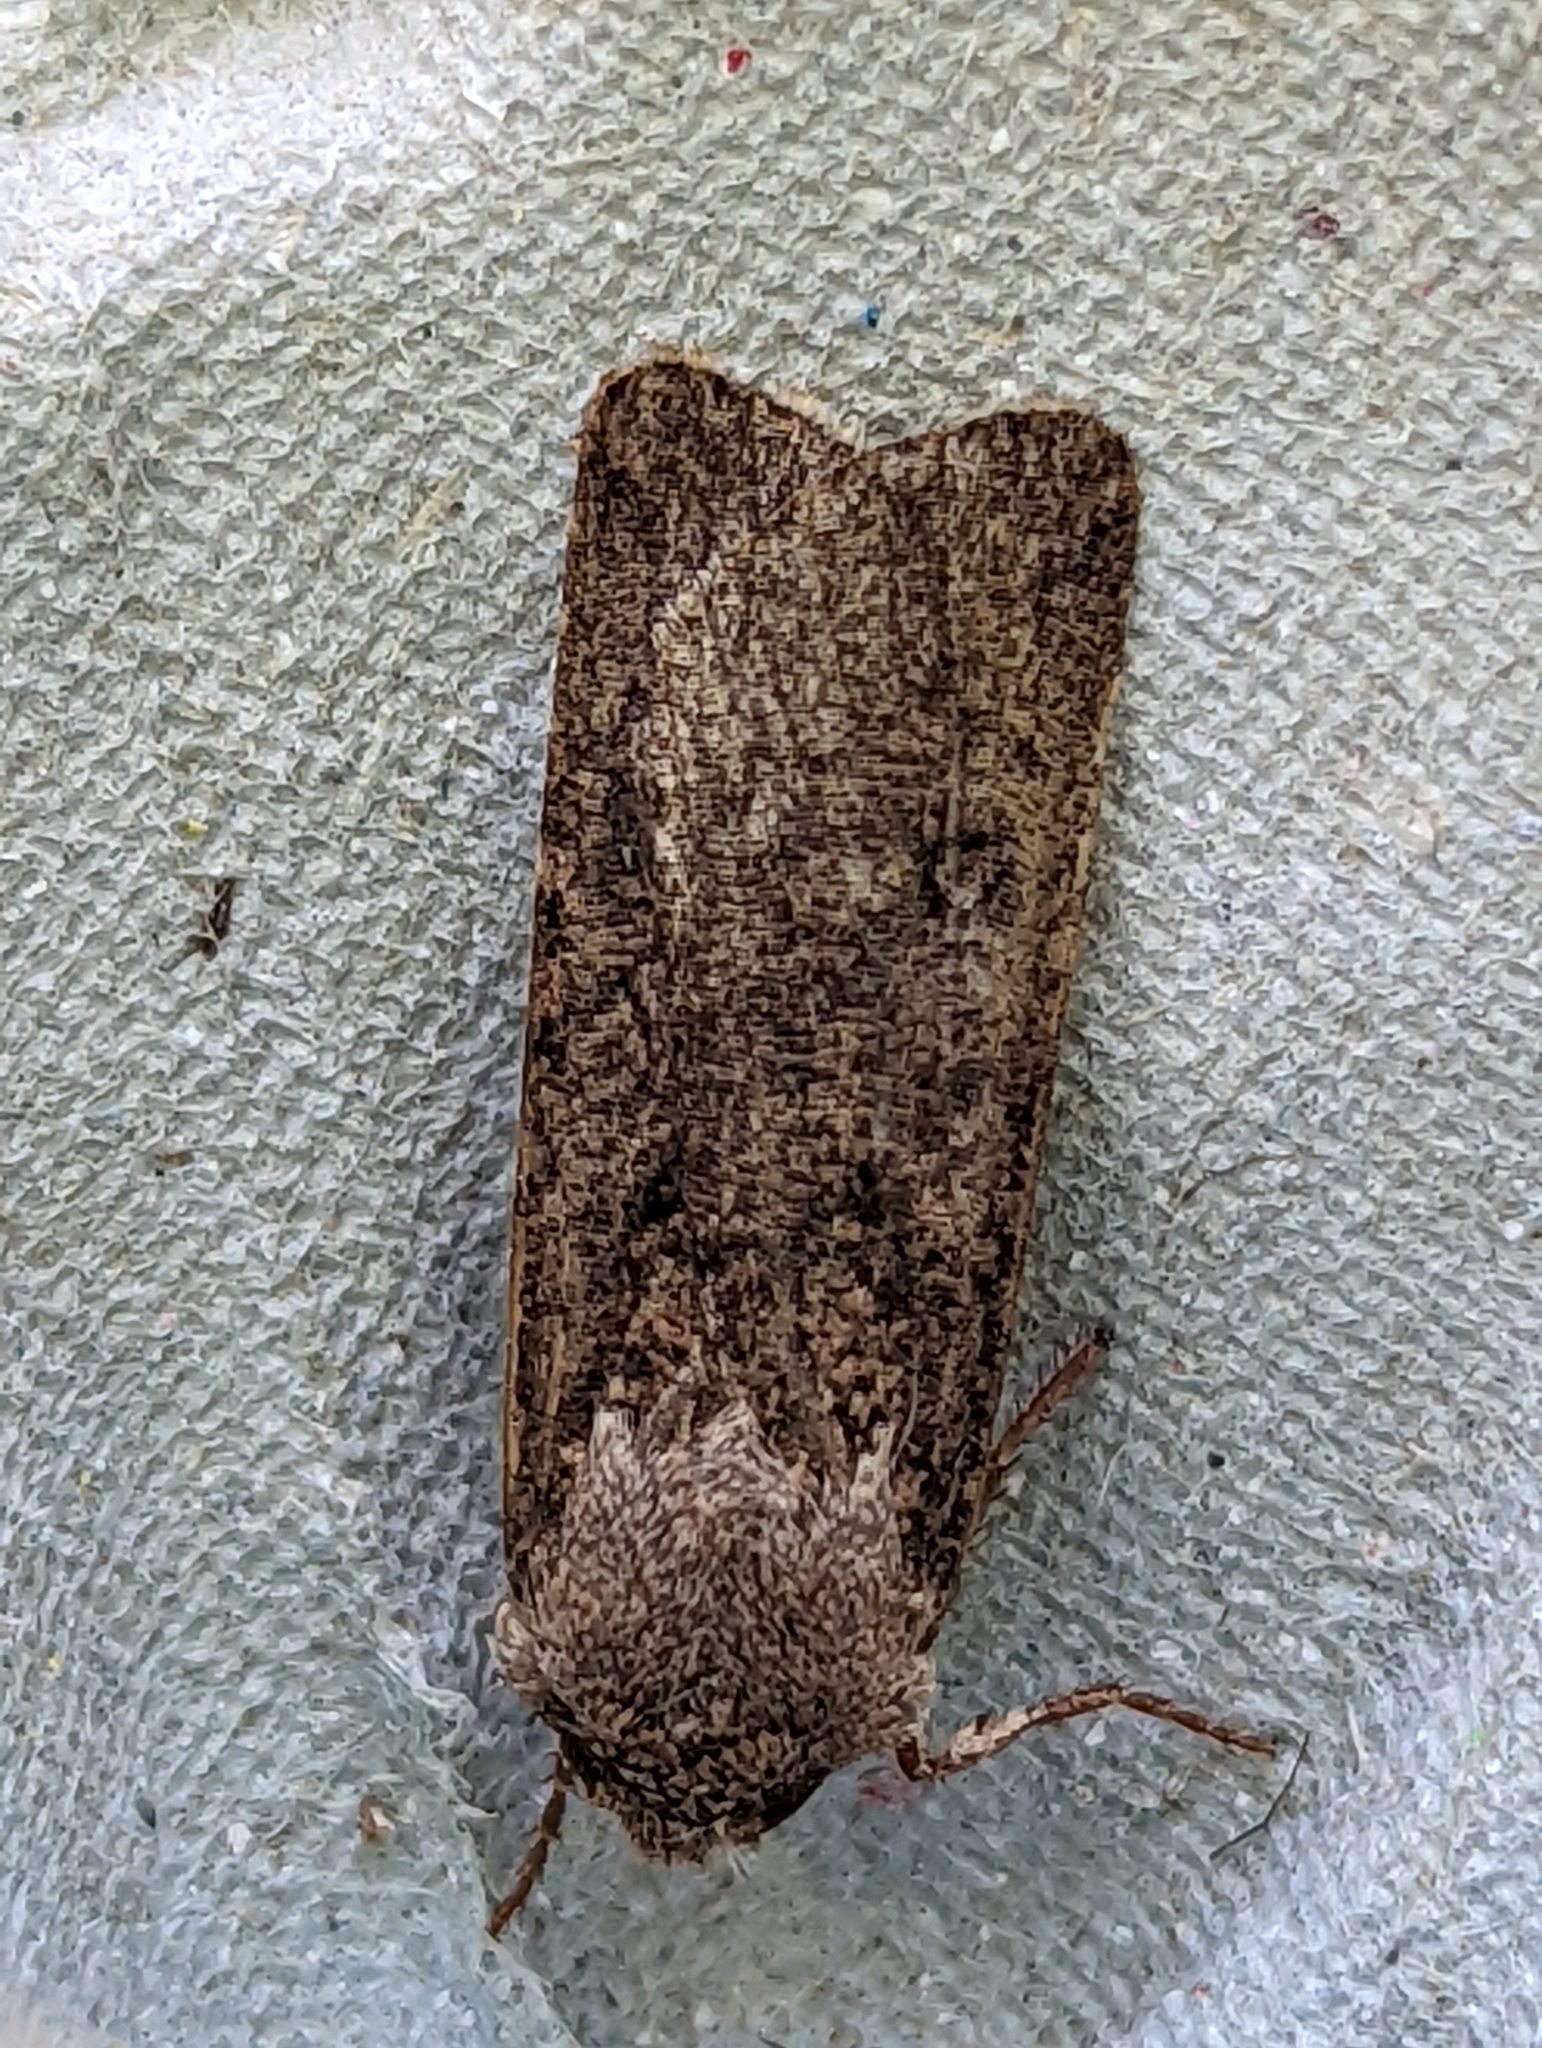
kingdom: Animalia
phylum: Arthropoda
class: Insecta
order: Lepidoptera
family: Noctuidae
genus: Agrotis
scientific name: Agrotis segetum
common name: Turnip moth
